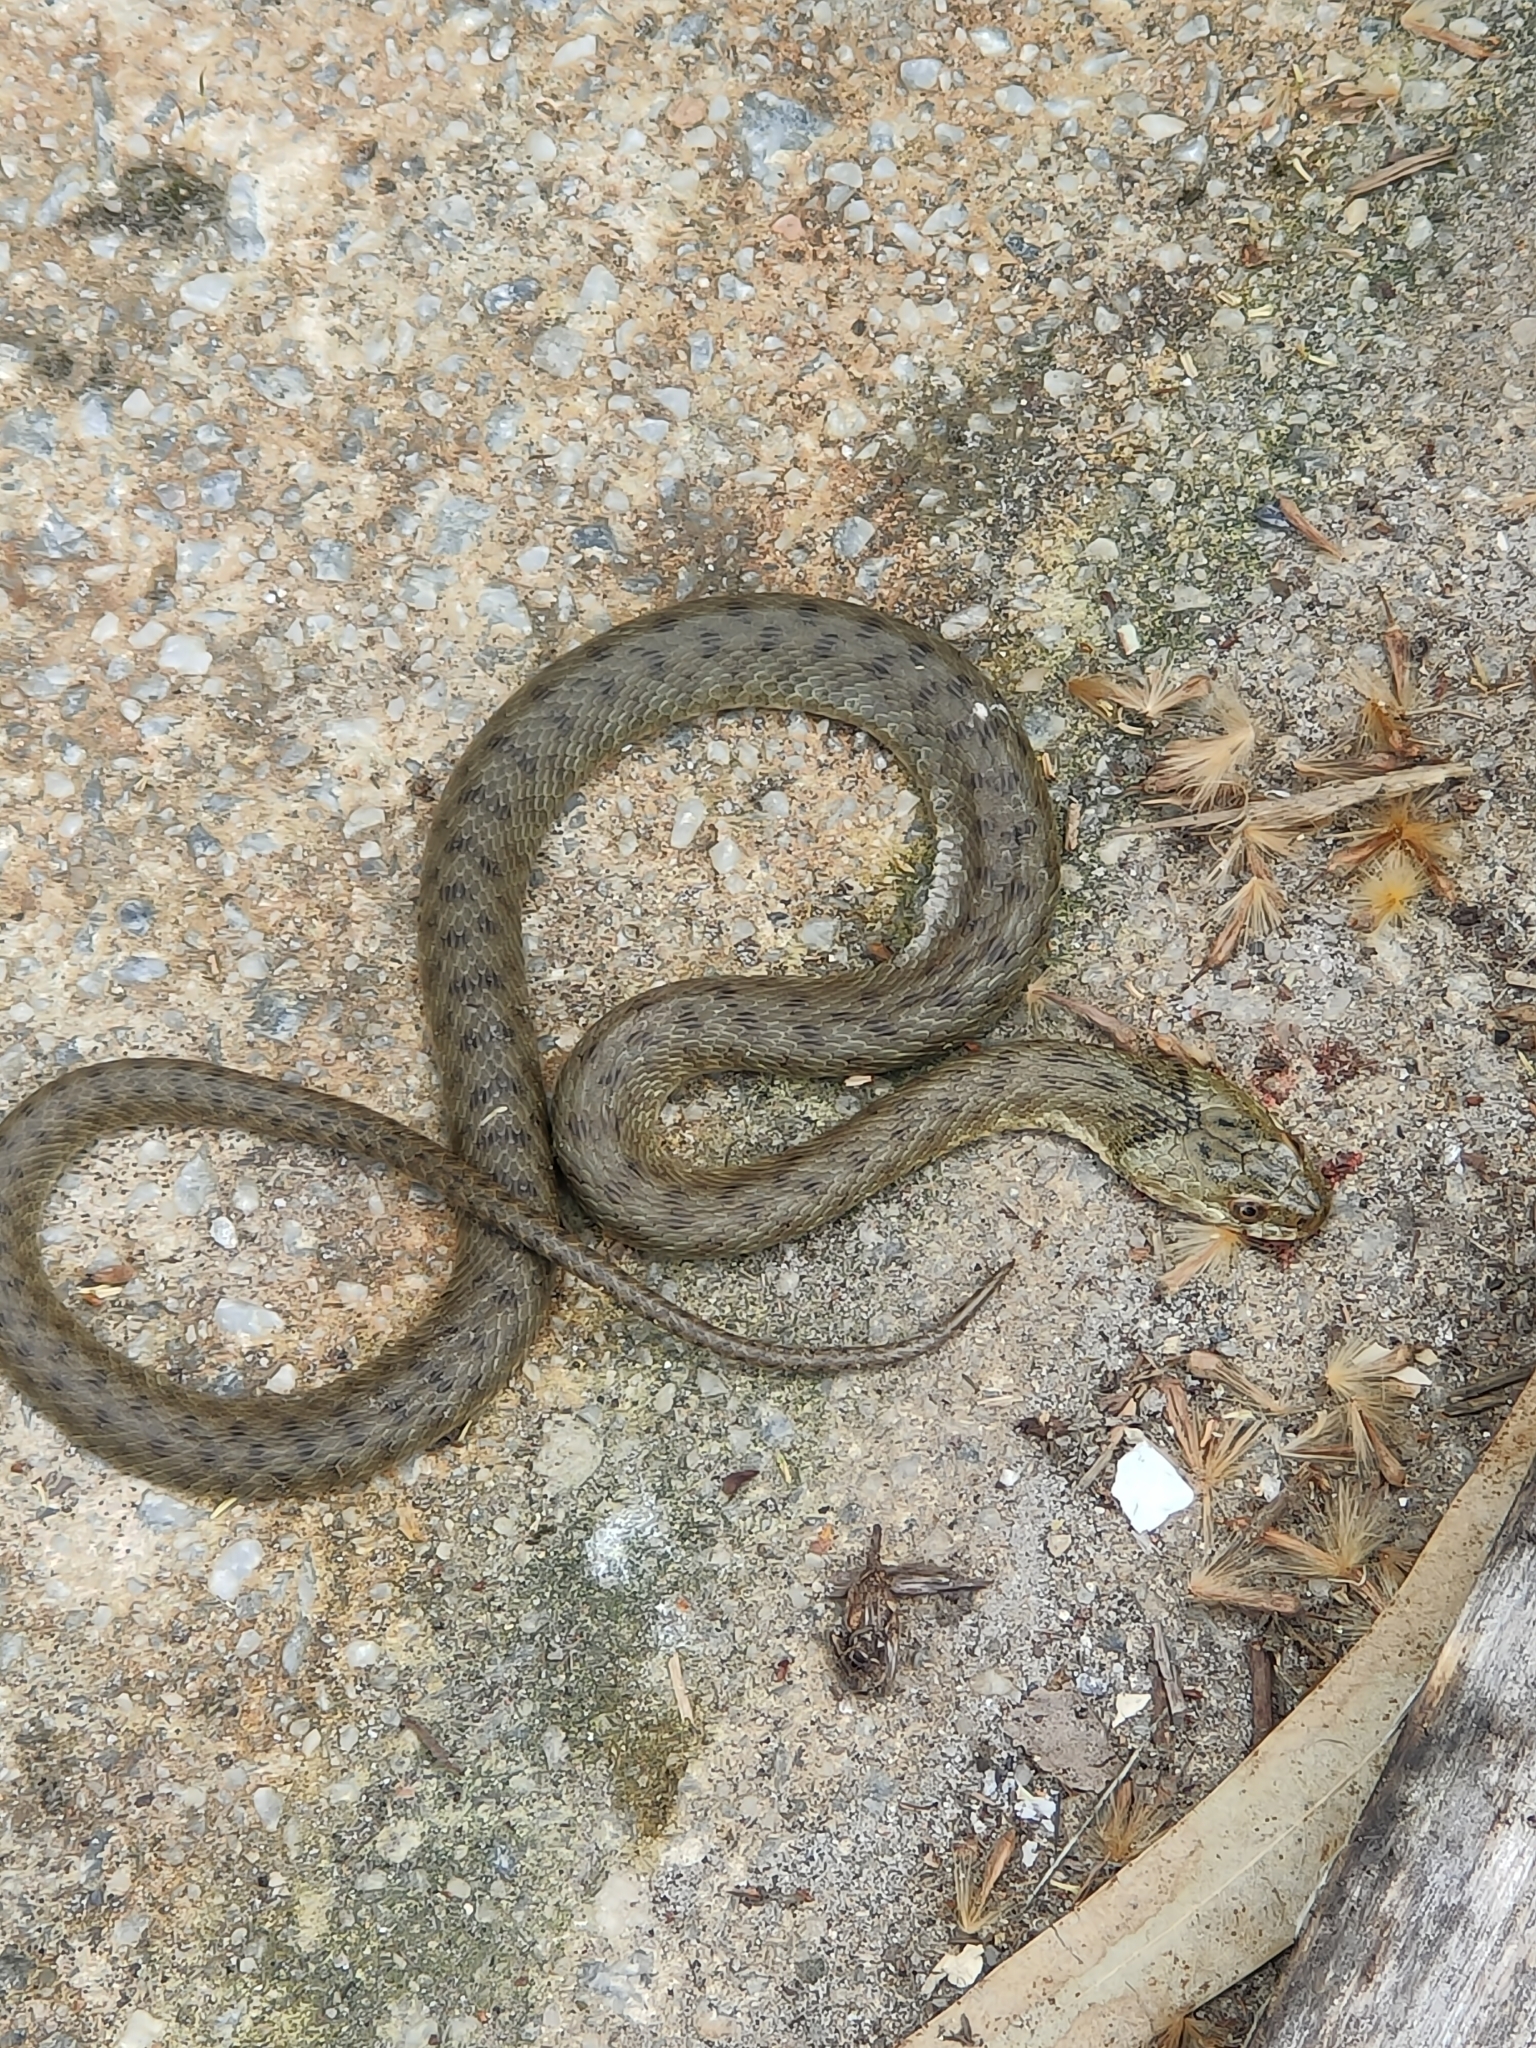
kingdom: Animalia
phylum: Chordata
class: Squamata
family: Colubridae
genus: Natrix
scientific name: Natrix tessellata
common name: Dice snake
